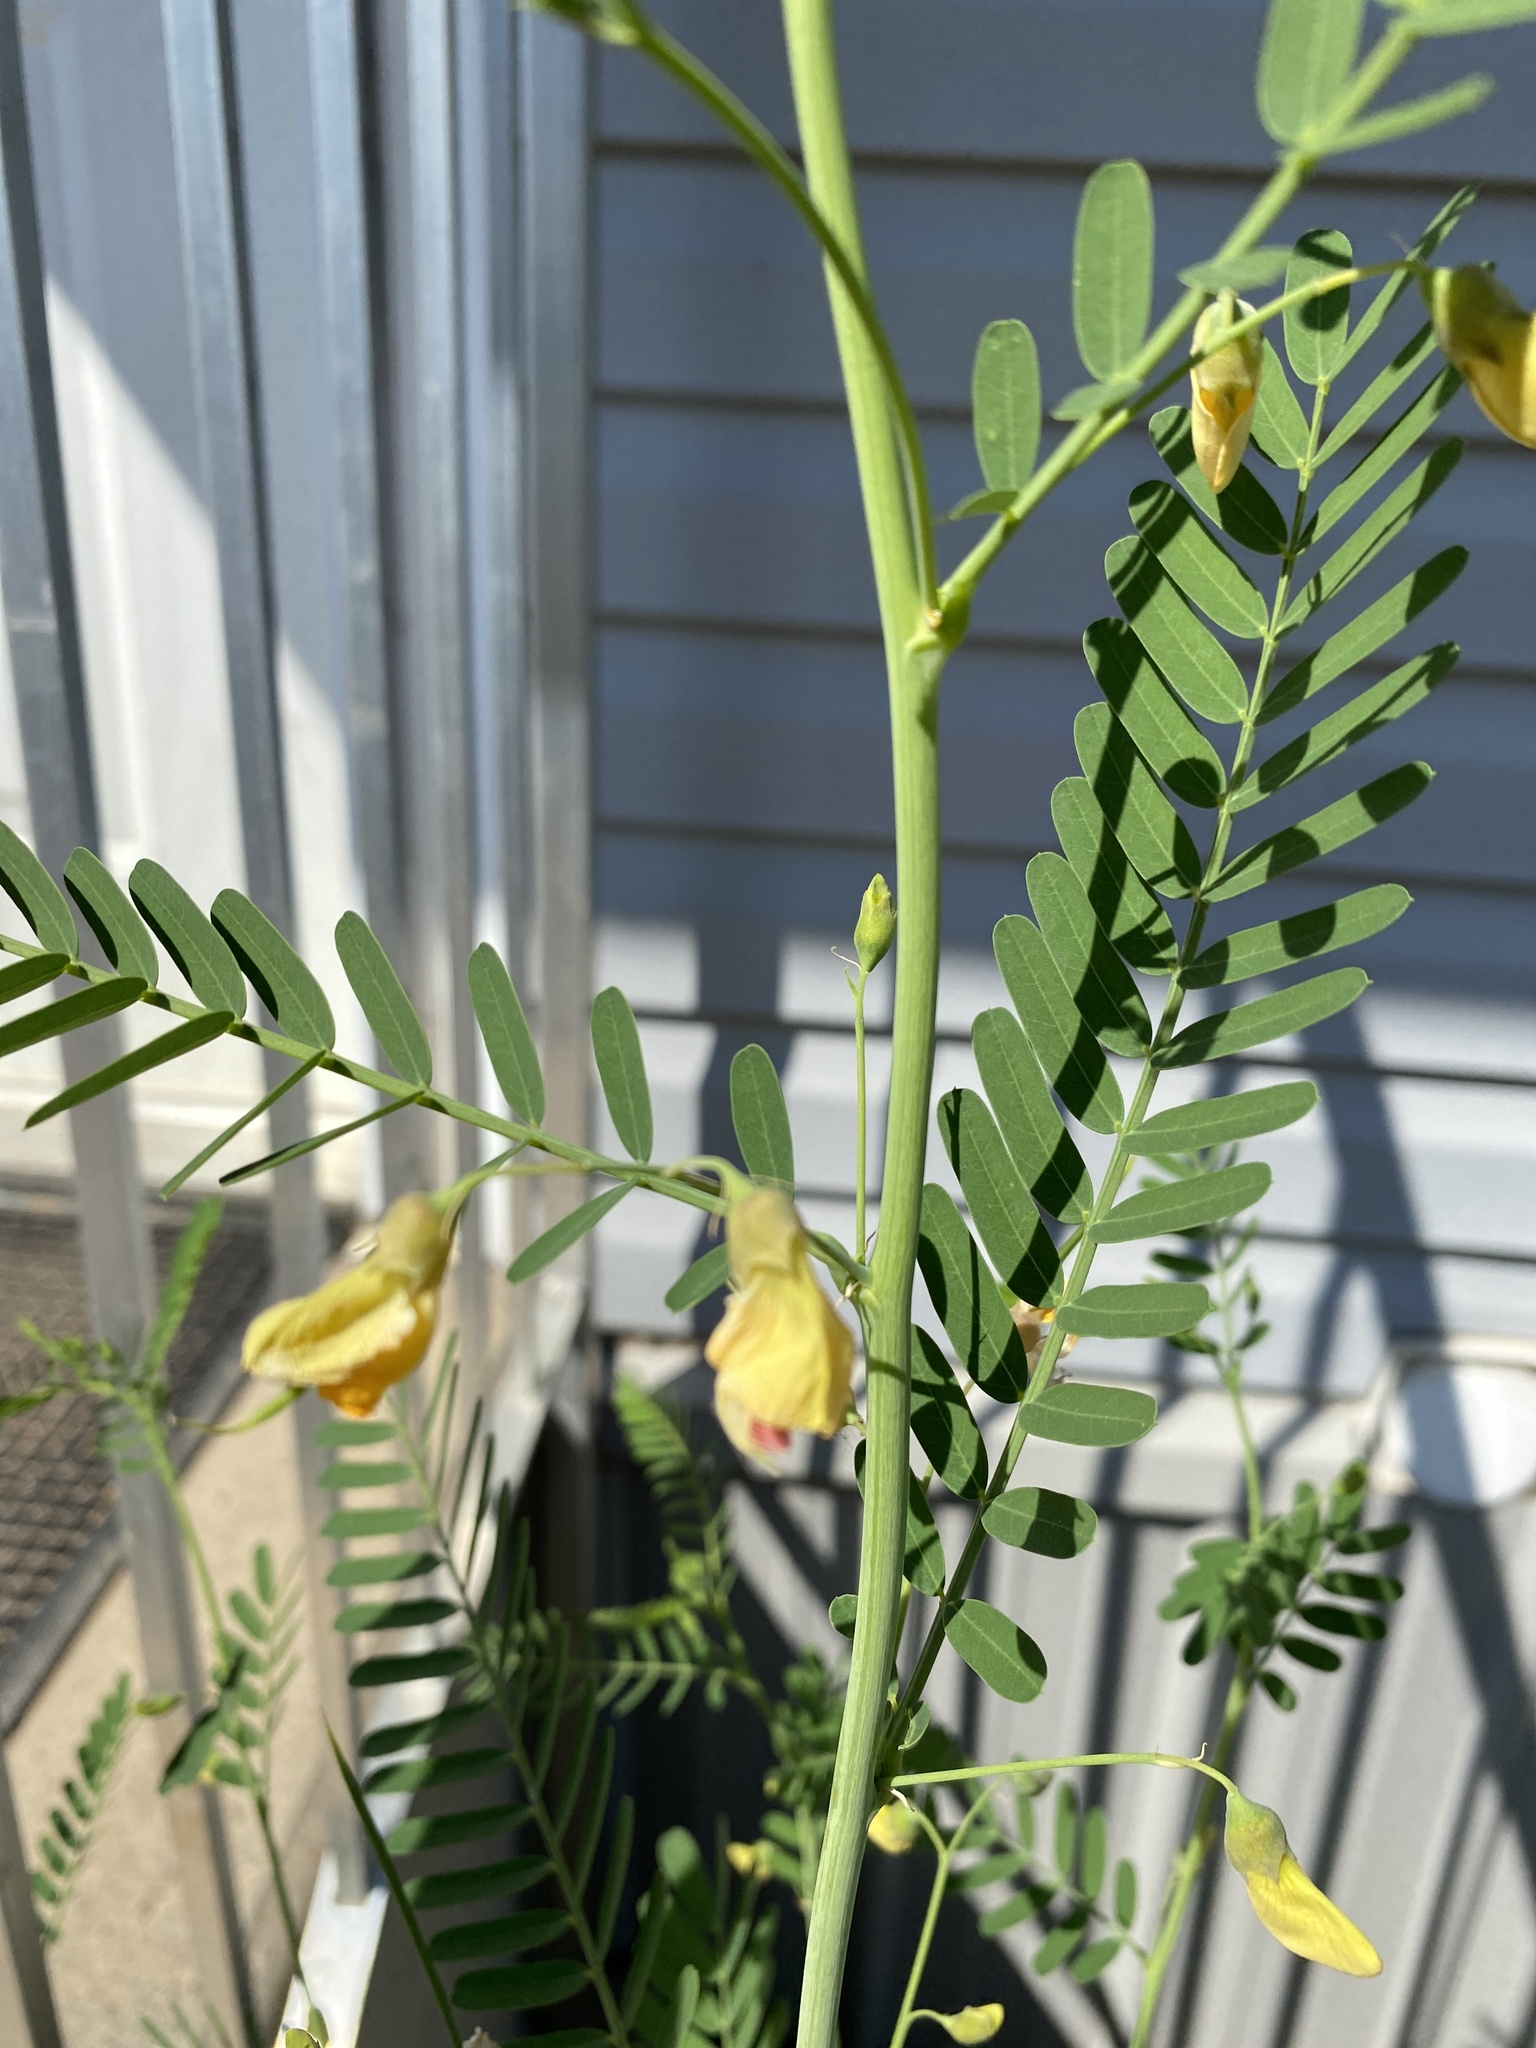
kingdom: Plantae
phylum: Tracheophyta
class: Magnoliopsida
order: Fabales
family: Fabaceae
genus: Sesbania
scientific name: Sesbania herbacea
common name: Bigpod sesbania
